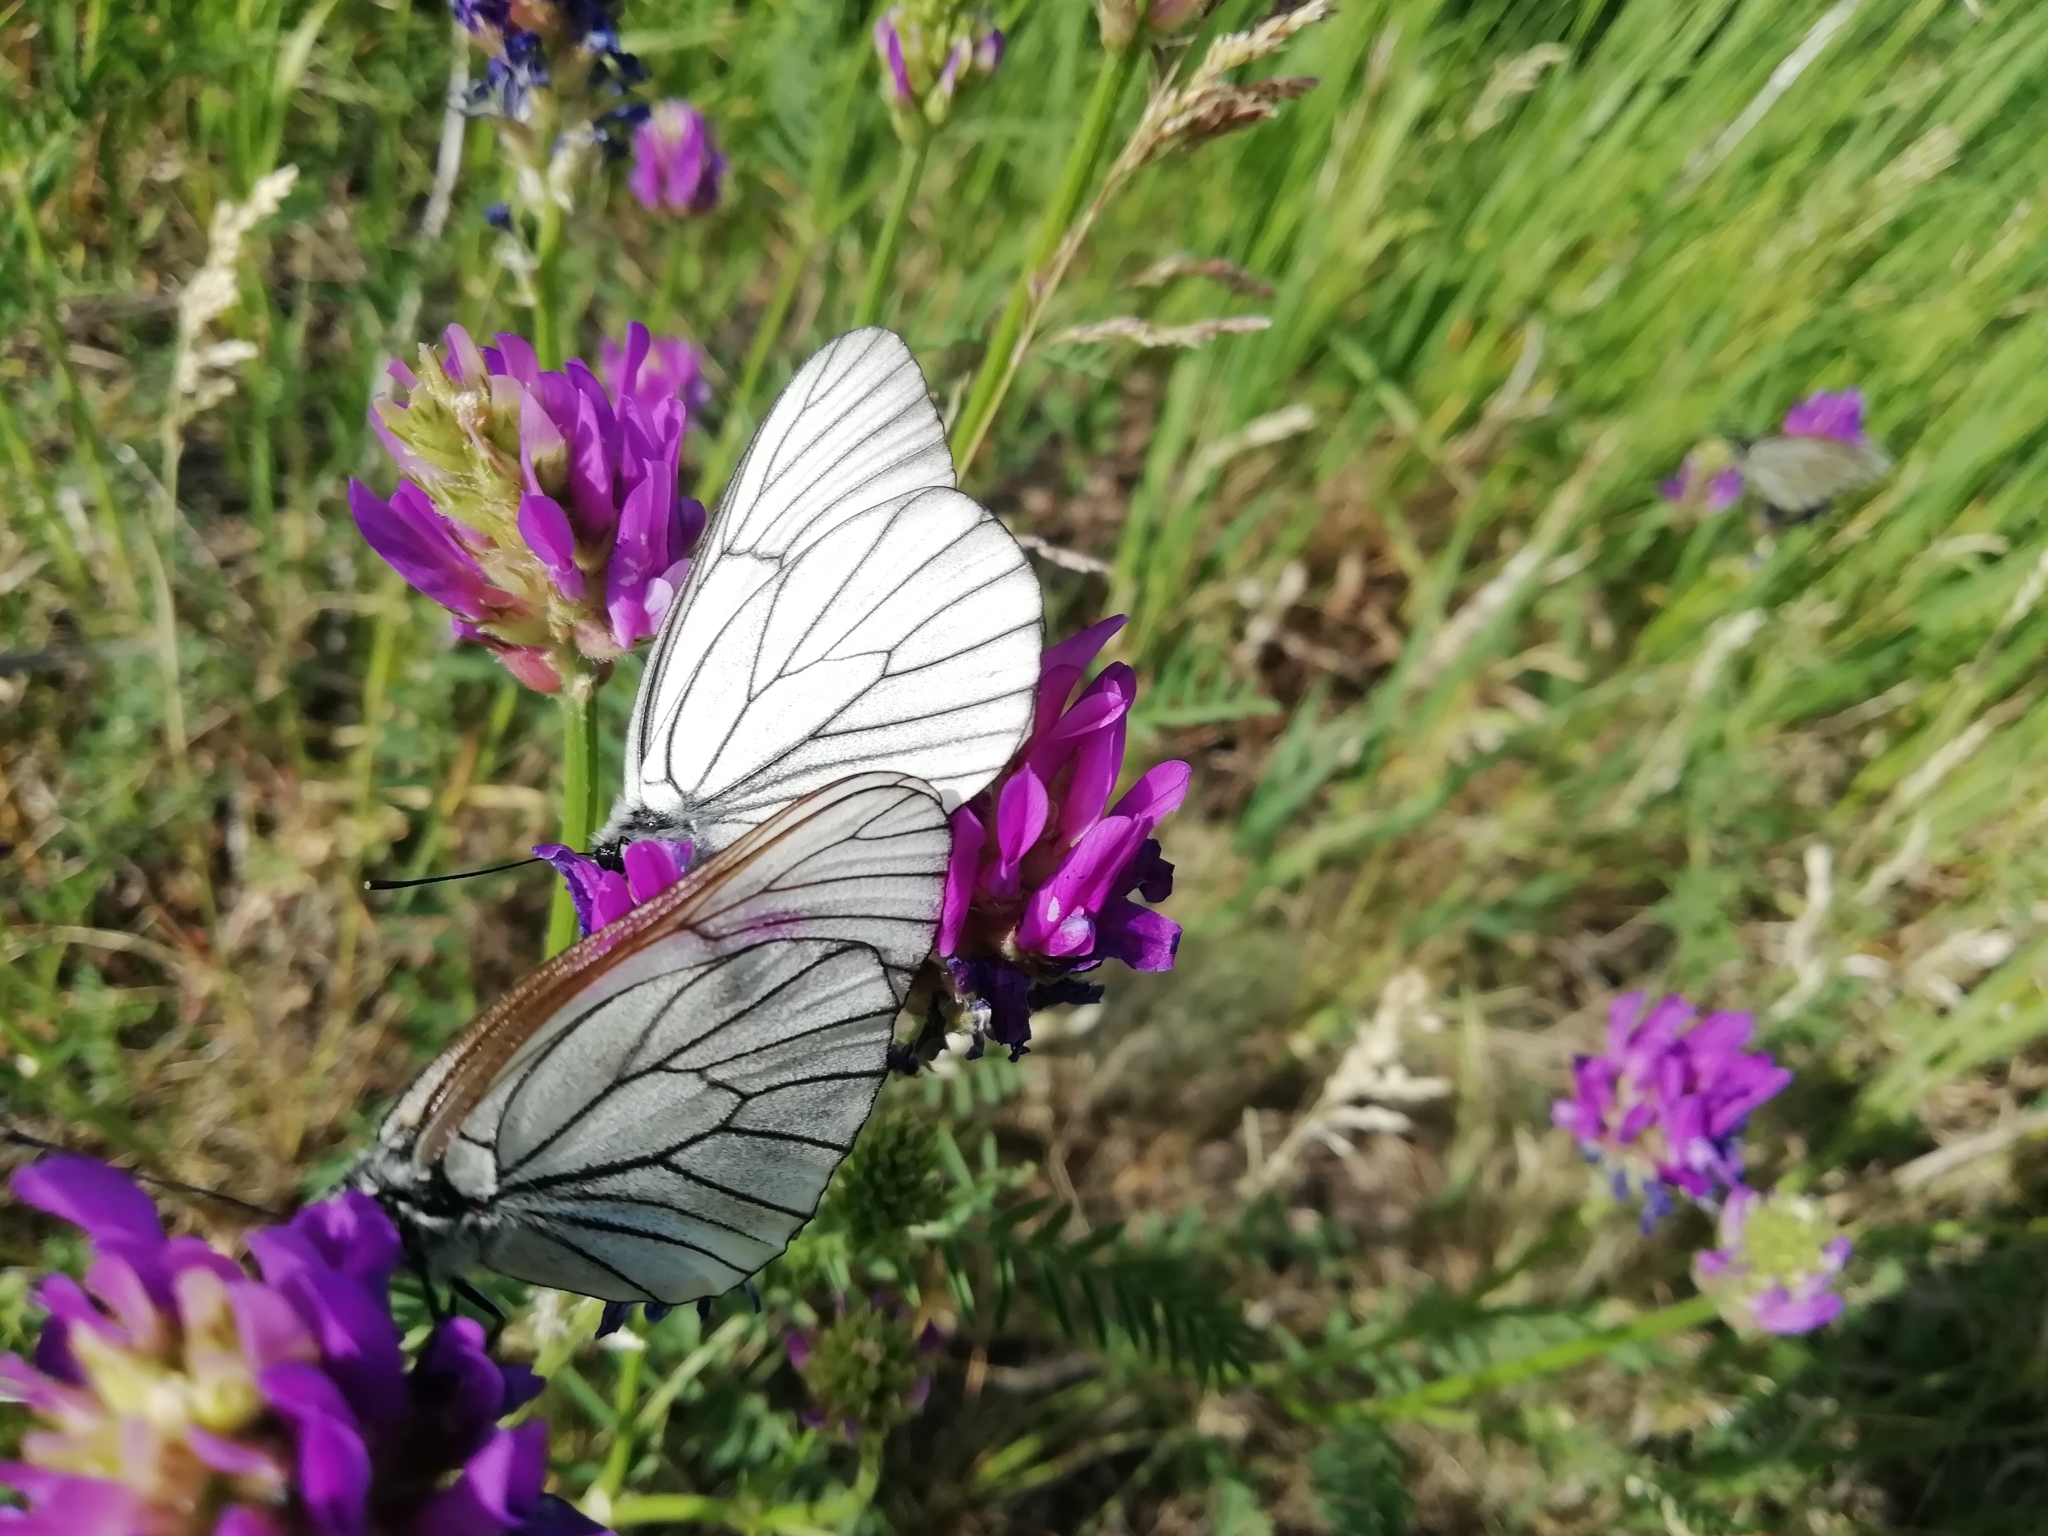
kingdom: Animalia
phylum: Arthropoda
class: Insecta
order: Lepidoptera
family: Pieridae
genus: Aporia
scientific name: Aporia crataegi
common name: Black-veined white
